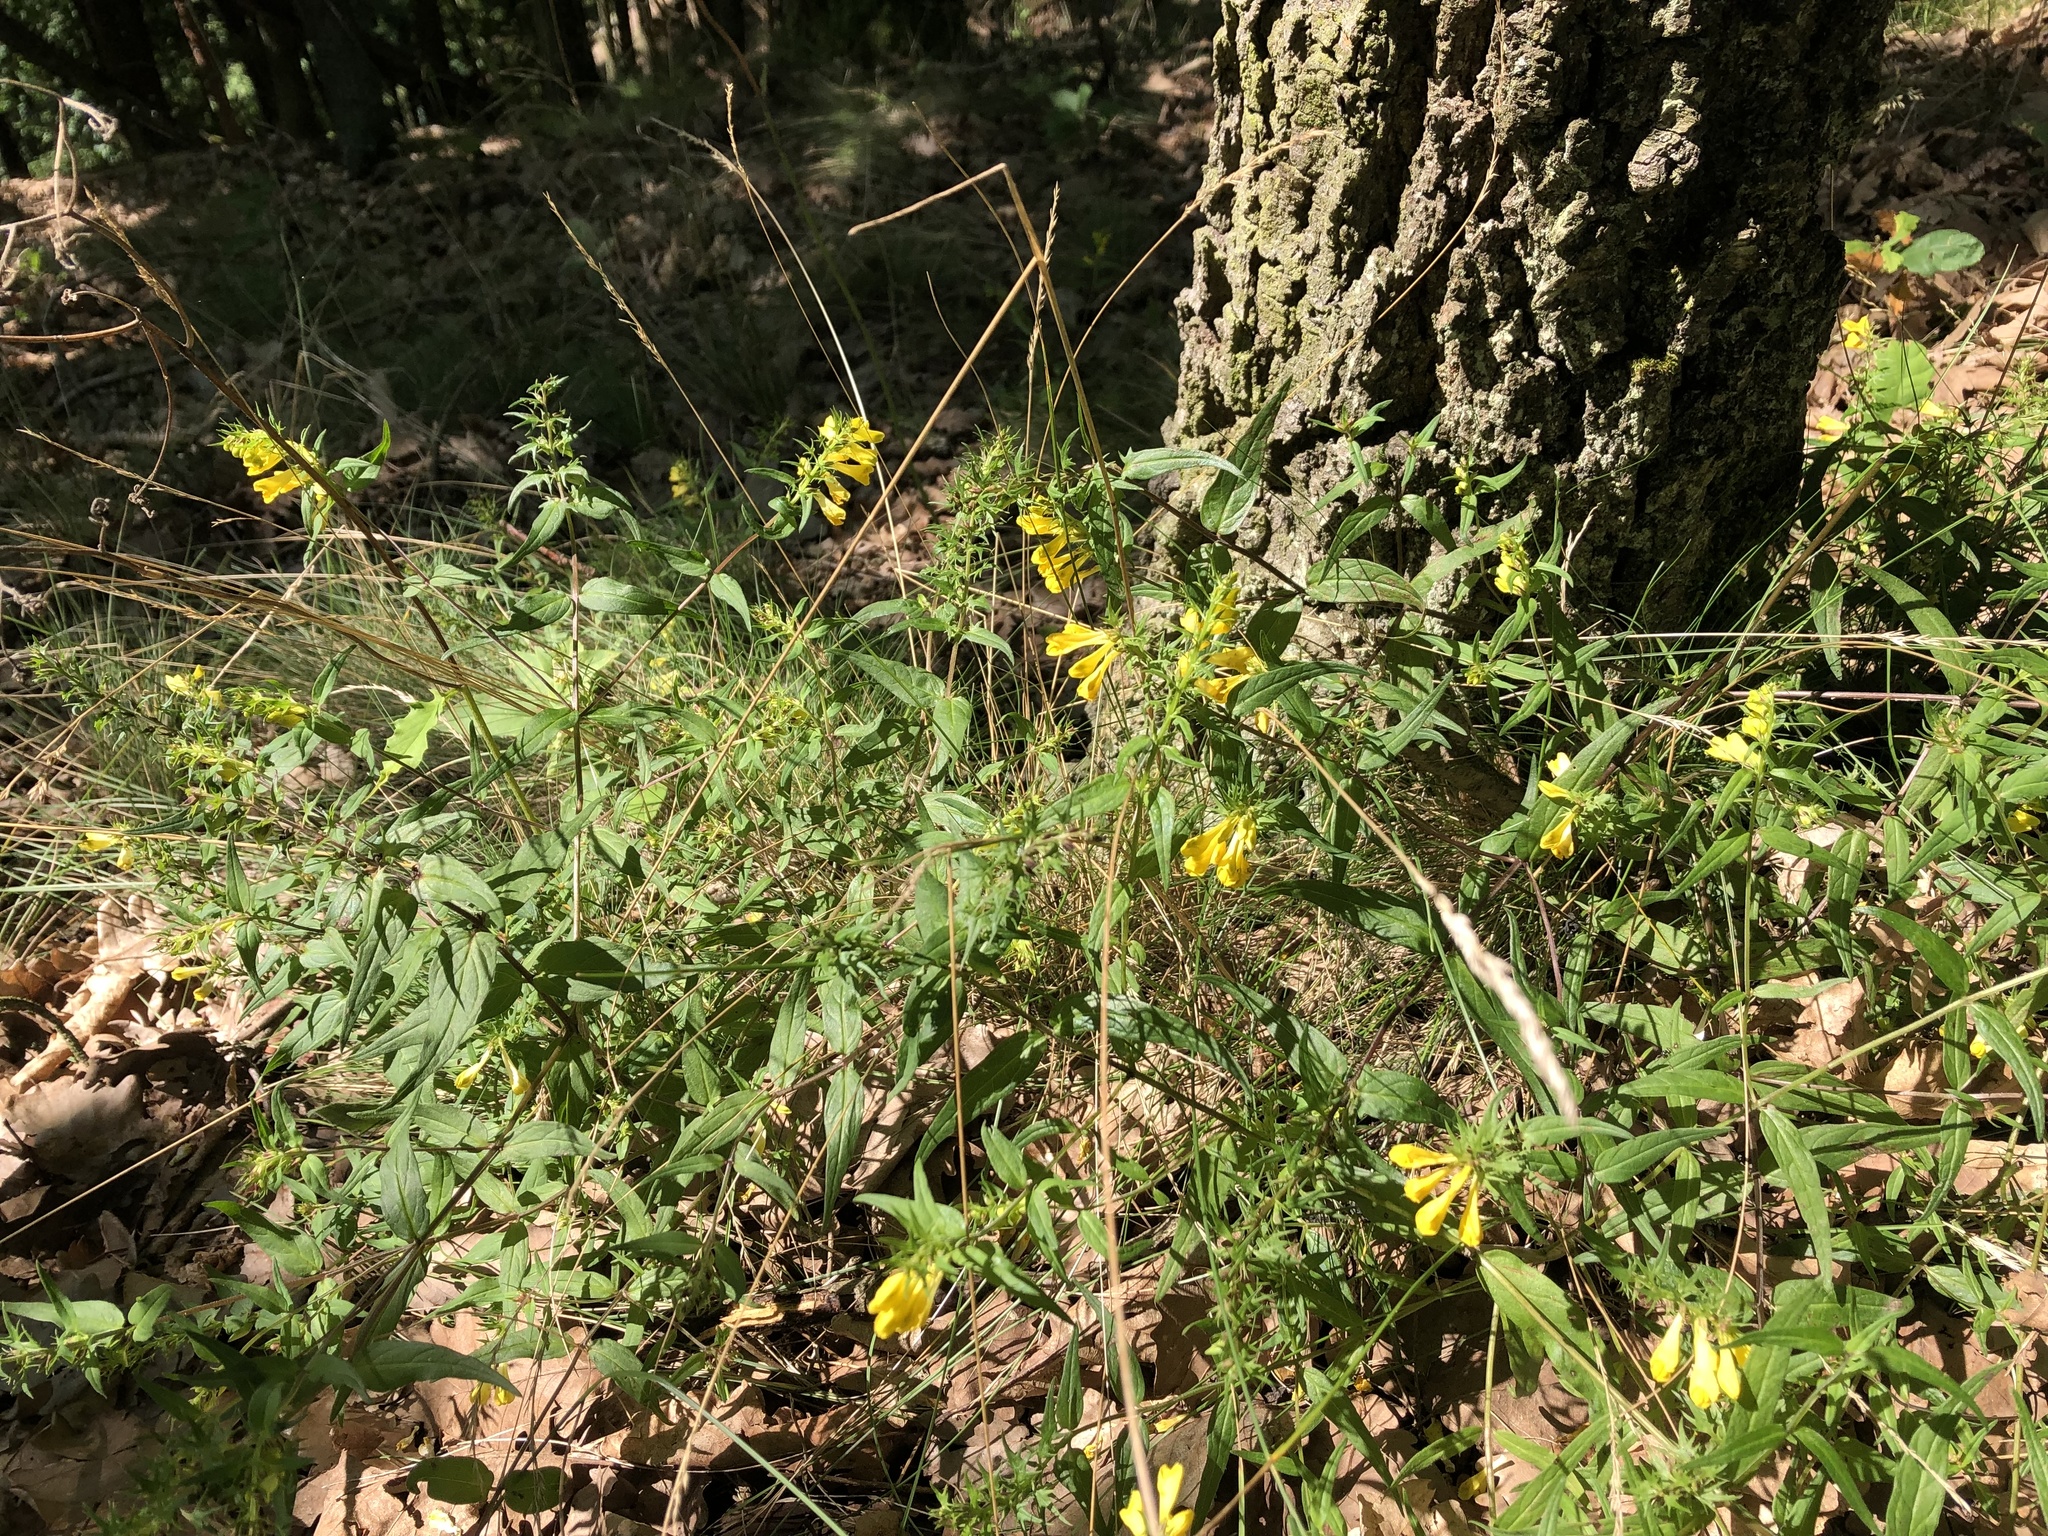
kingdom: Plantae
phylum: Tracheophyta
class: Magnoliopsida
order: Lamiales
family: Orobanchaceae
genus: Melampyrum
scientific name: Melampyrum pratense
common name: Common cow-wheat
